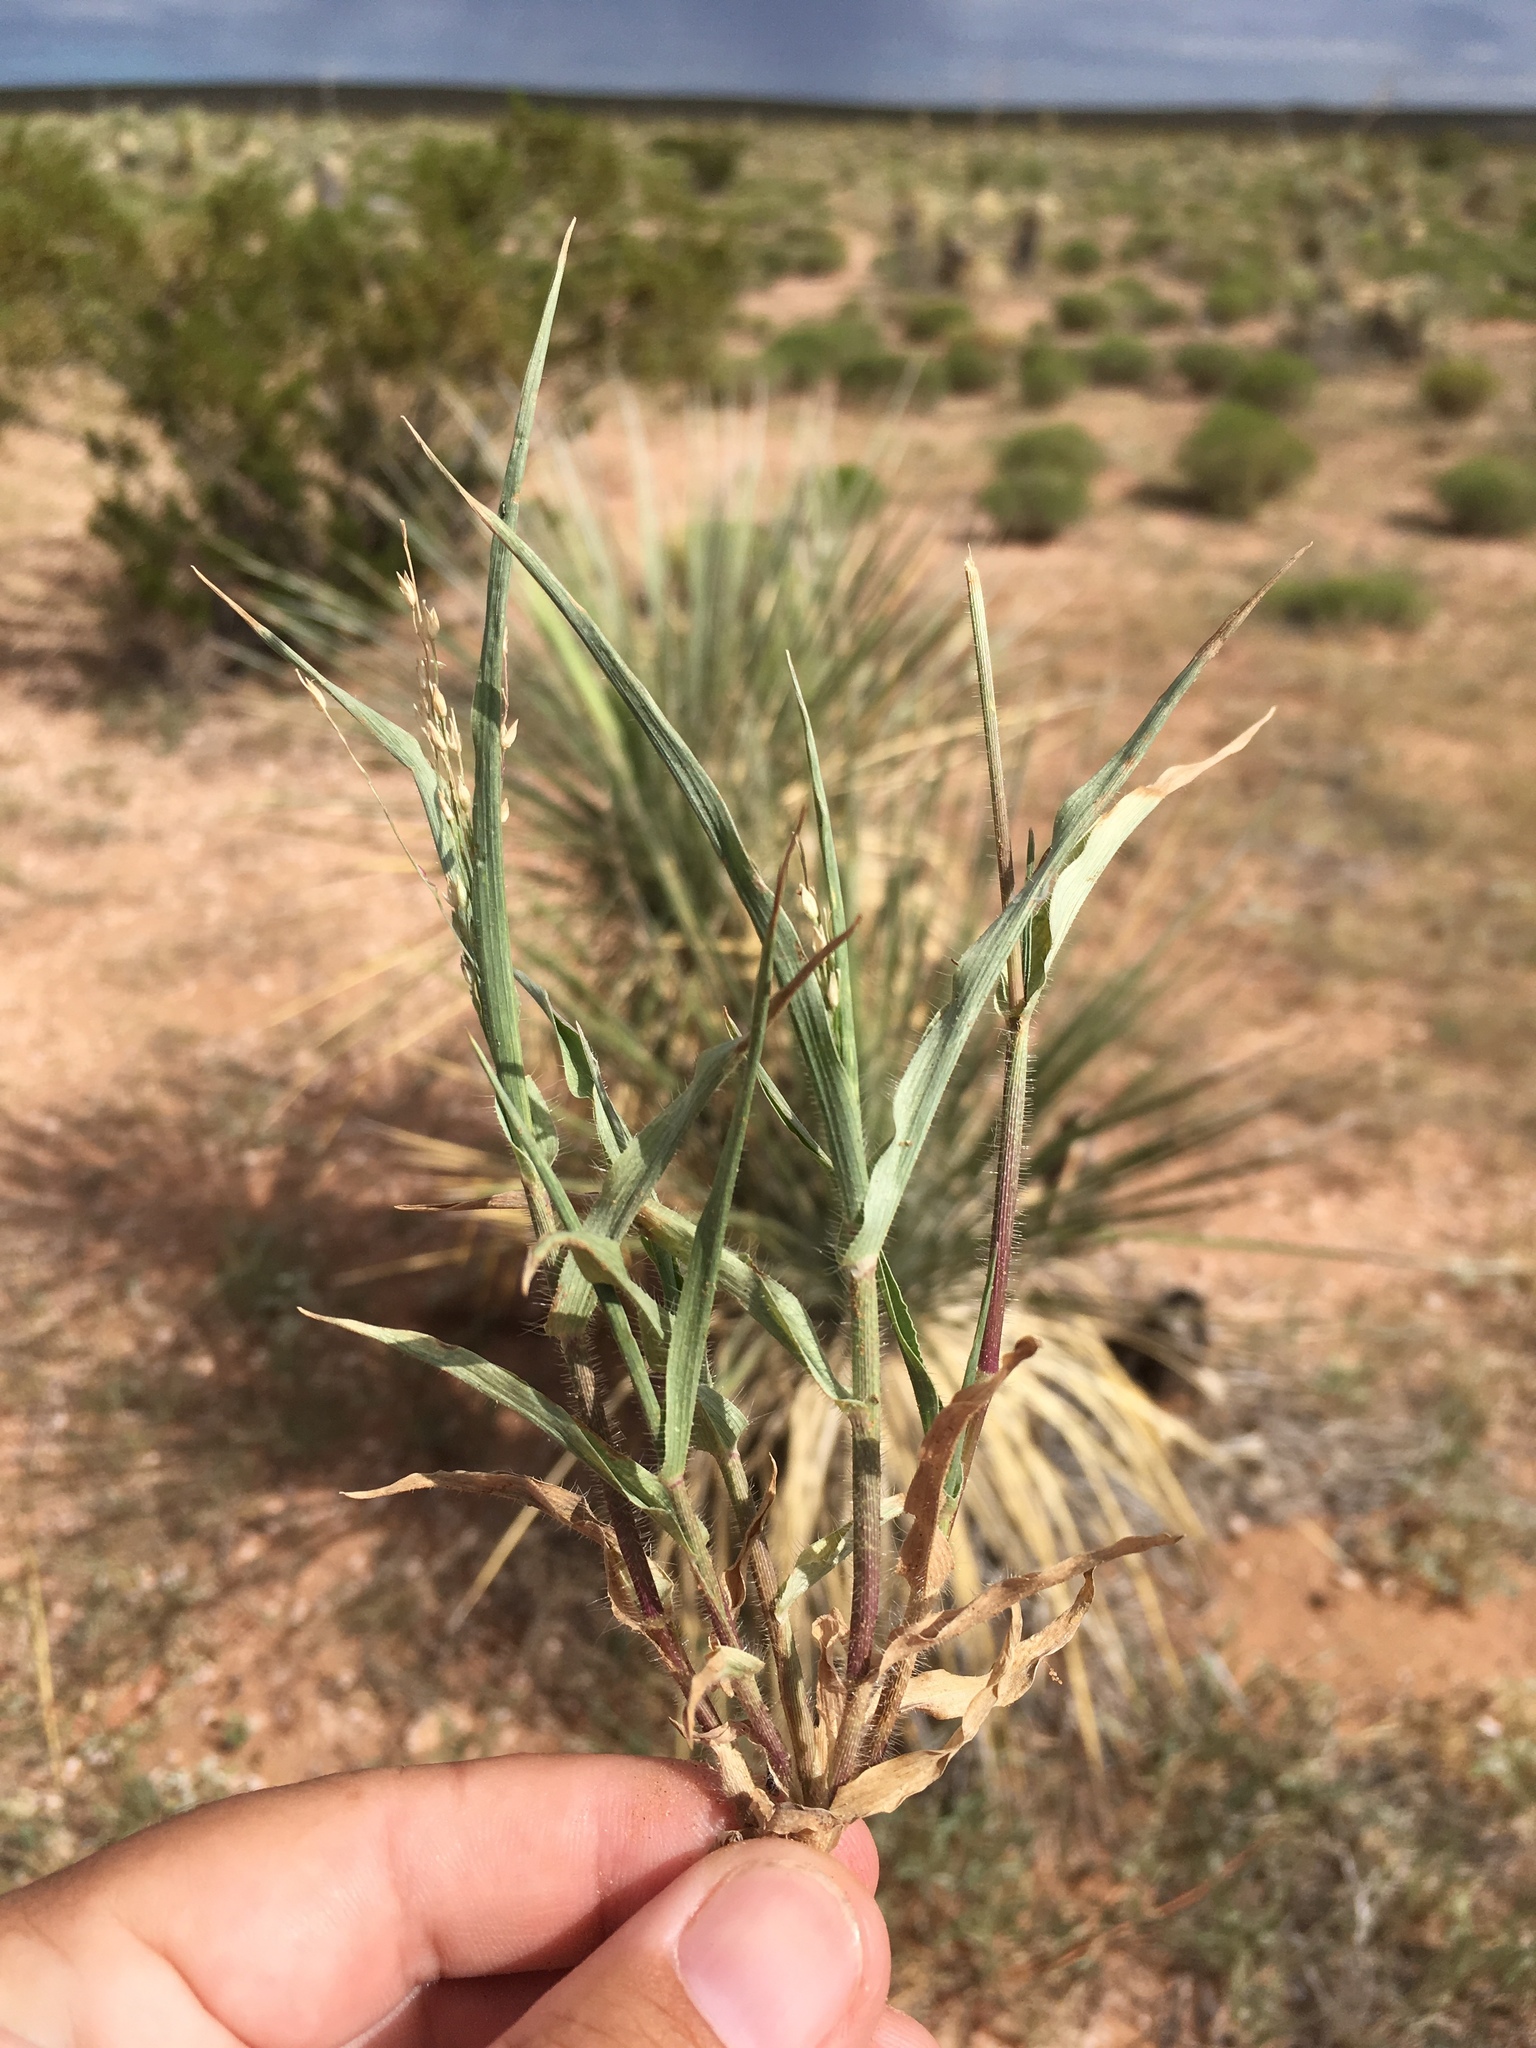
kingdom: Plantae
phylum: Tracheophyta
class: Liliopsida
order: Poales
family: Poaceae
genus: Panicum
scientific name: Panicum hirticaule
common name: Rough-stalk witchgrass
